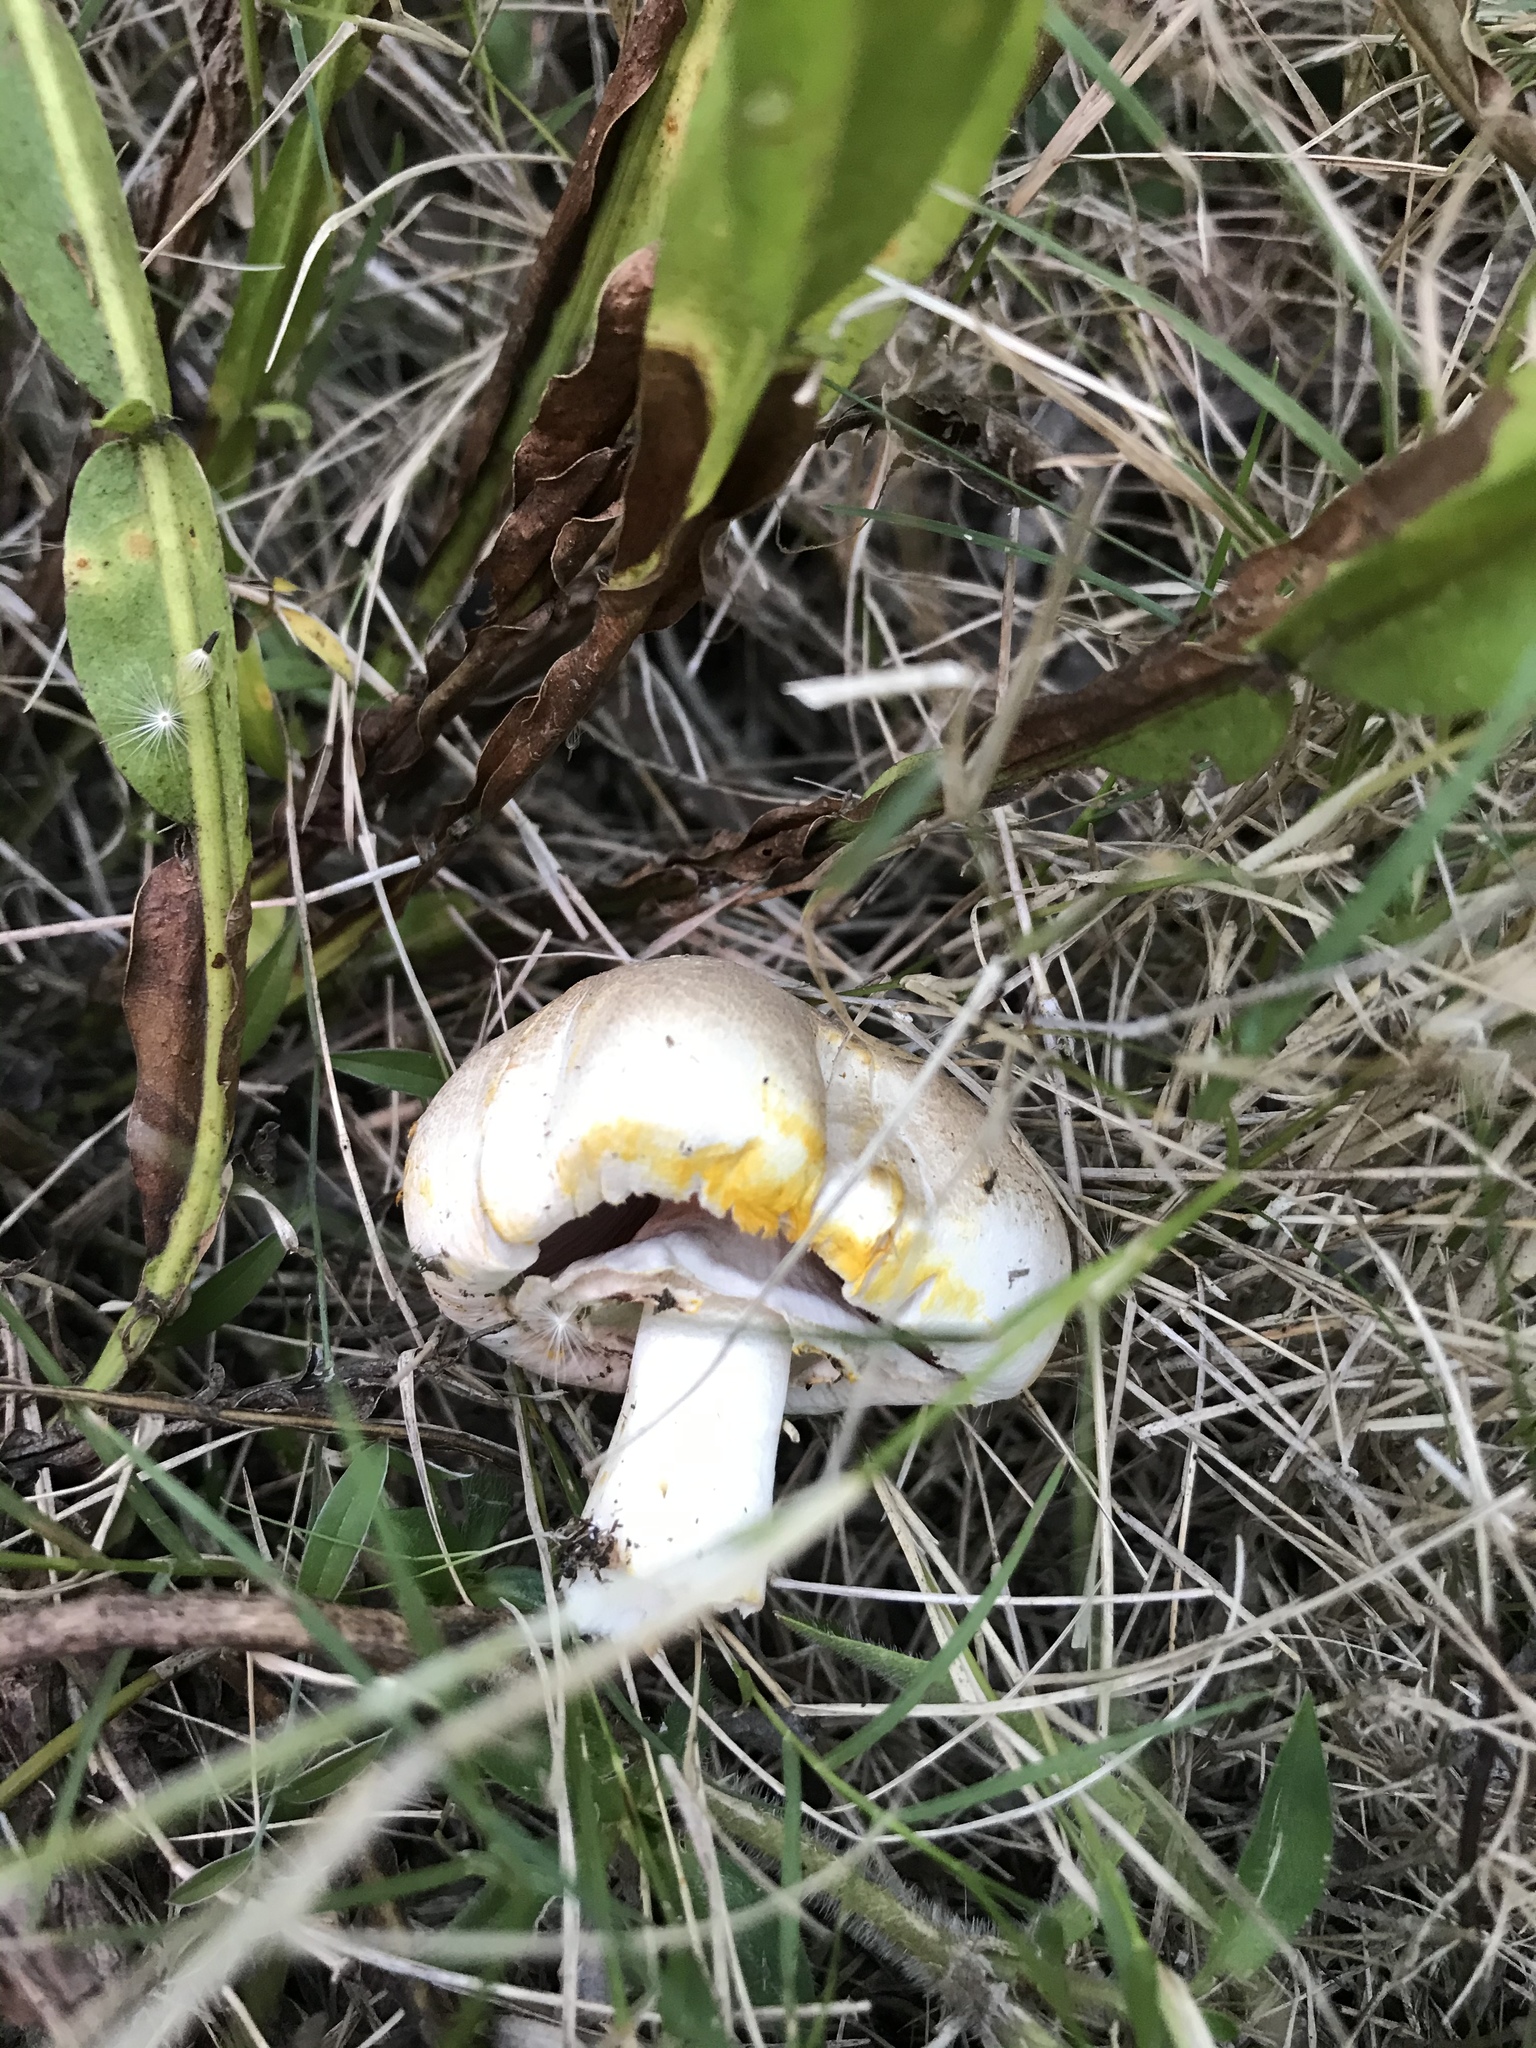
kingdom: Fungi
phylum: Basidiomycota
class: Agaricomycetes
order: Agaricales
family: Agaricaceae
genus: Agaricus
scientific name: Agaricus xanthodermus
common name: Yellow stainer
